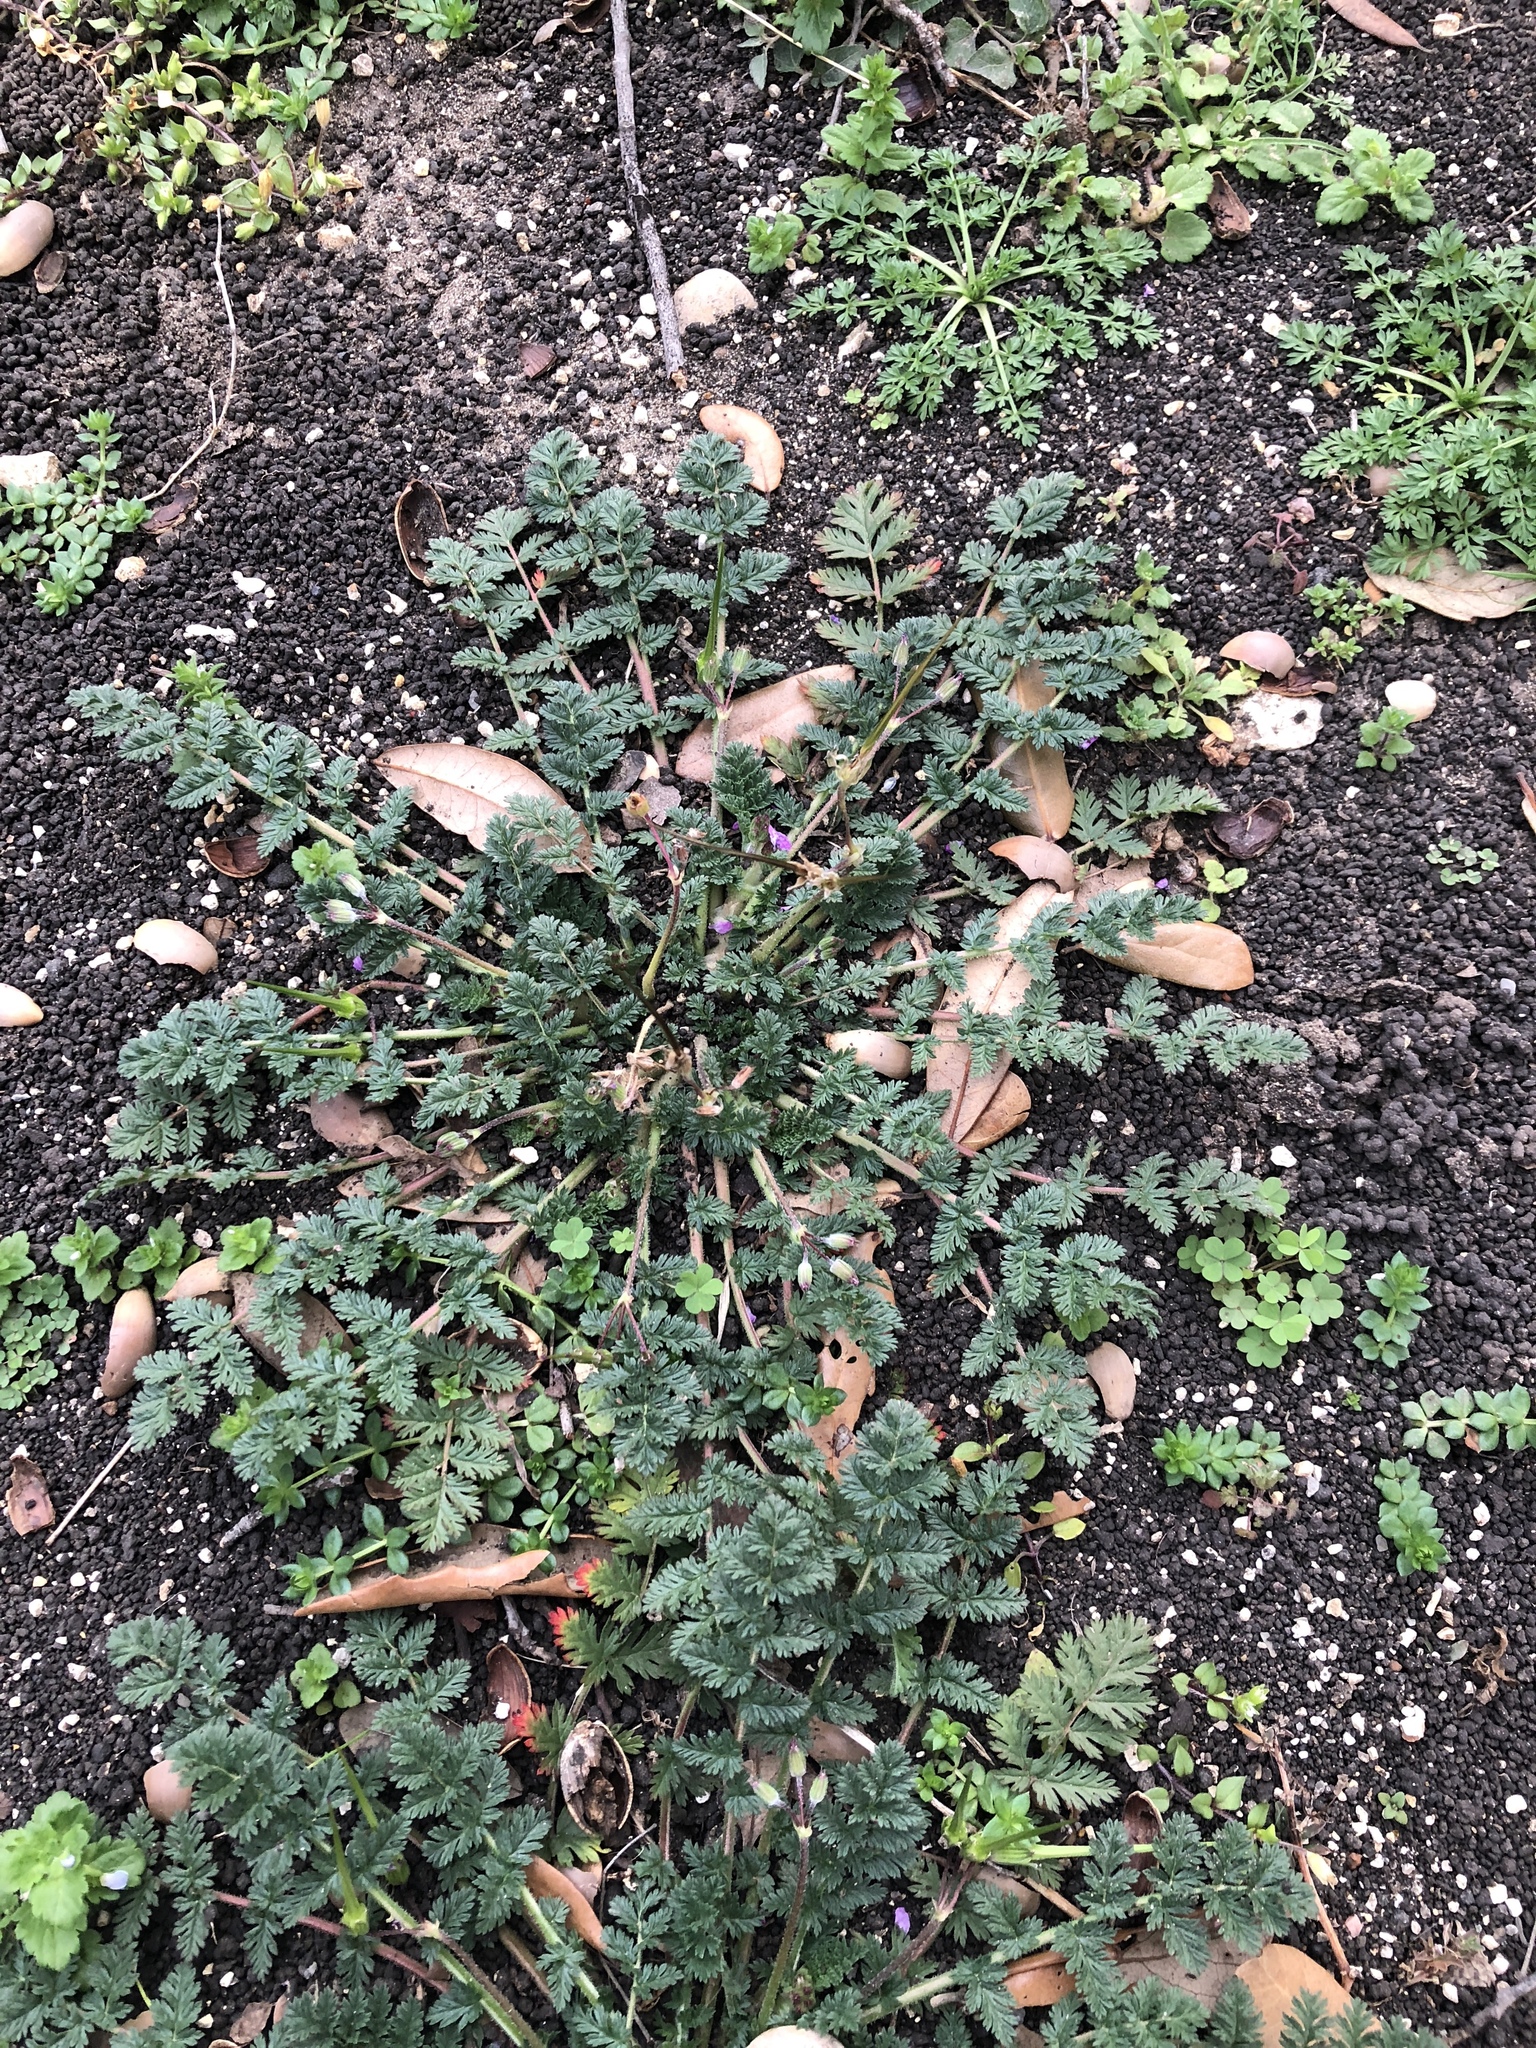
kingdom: Plantae
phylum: Tracheophyta
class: Magnoliopsida
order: Geraniales
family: Geraniaceae
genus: Erodium
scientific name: Erodium cicutarium
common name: Common stork's-bill
